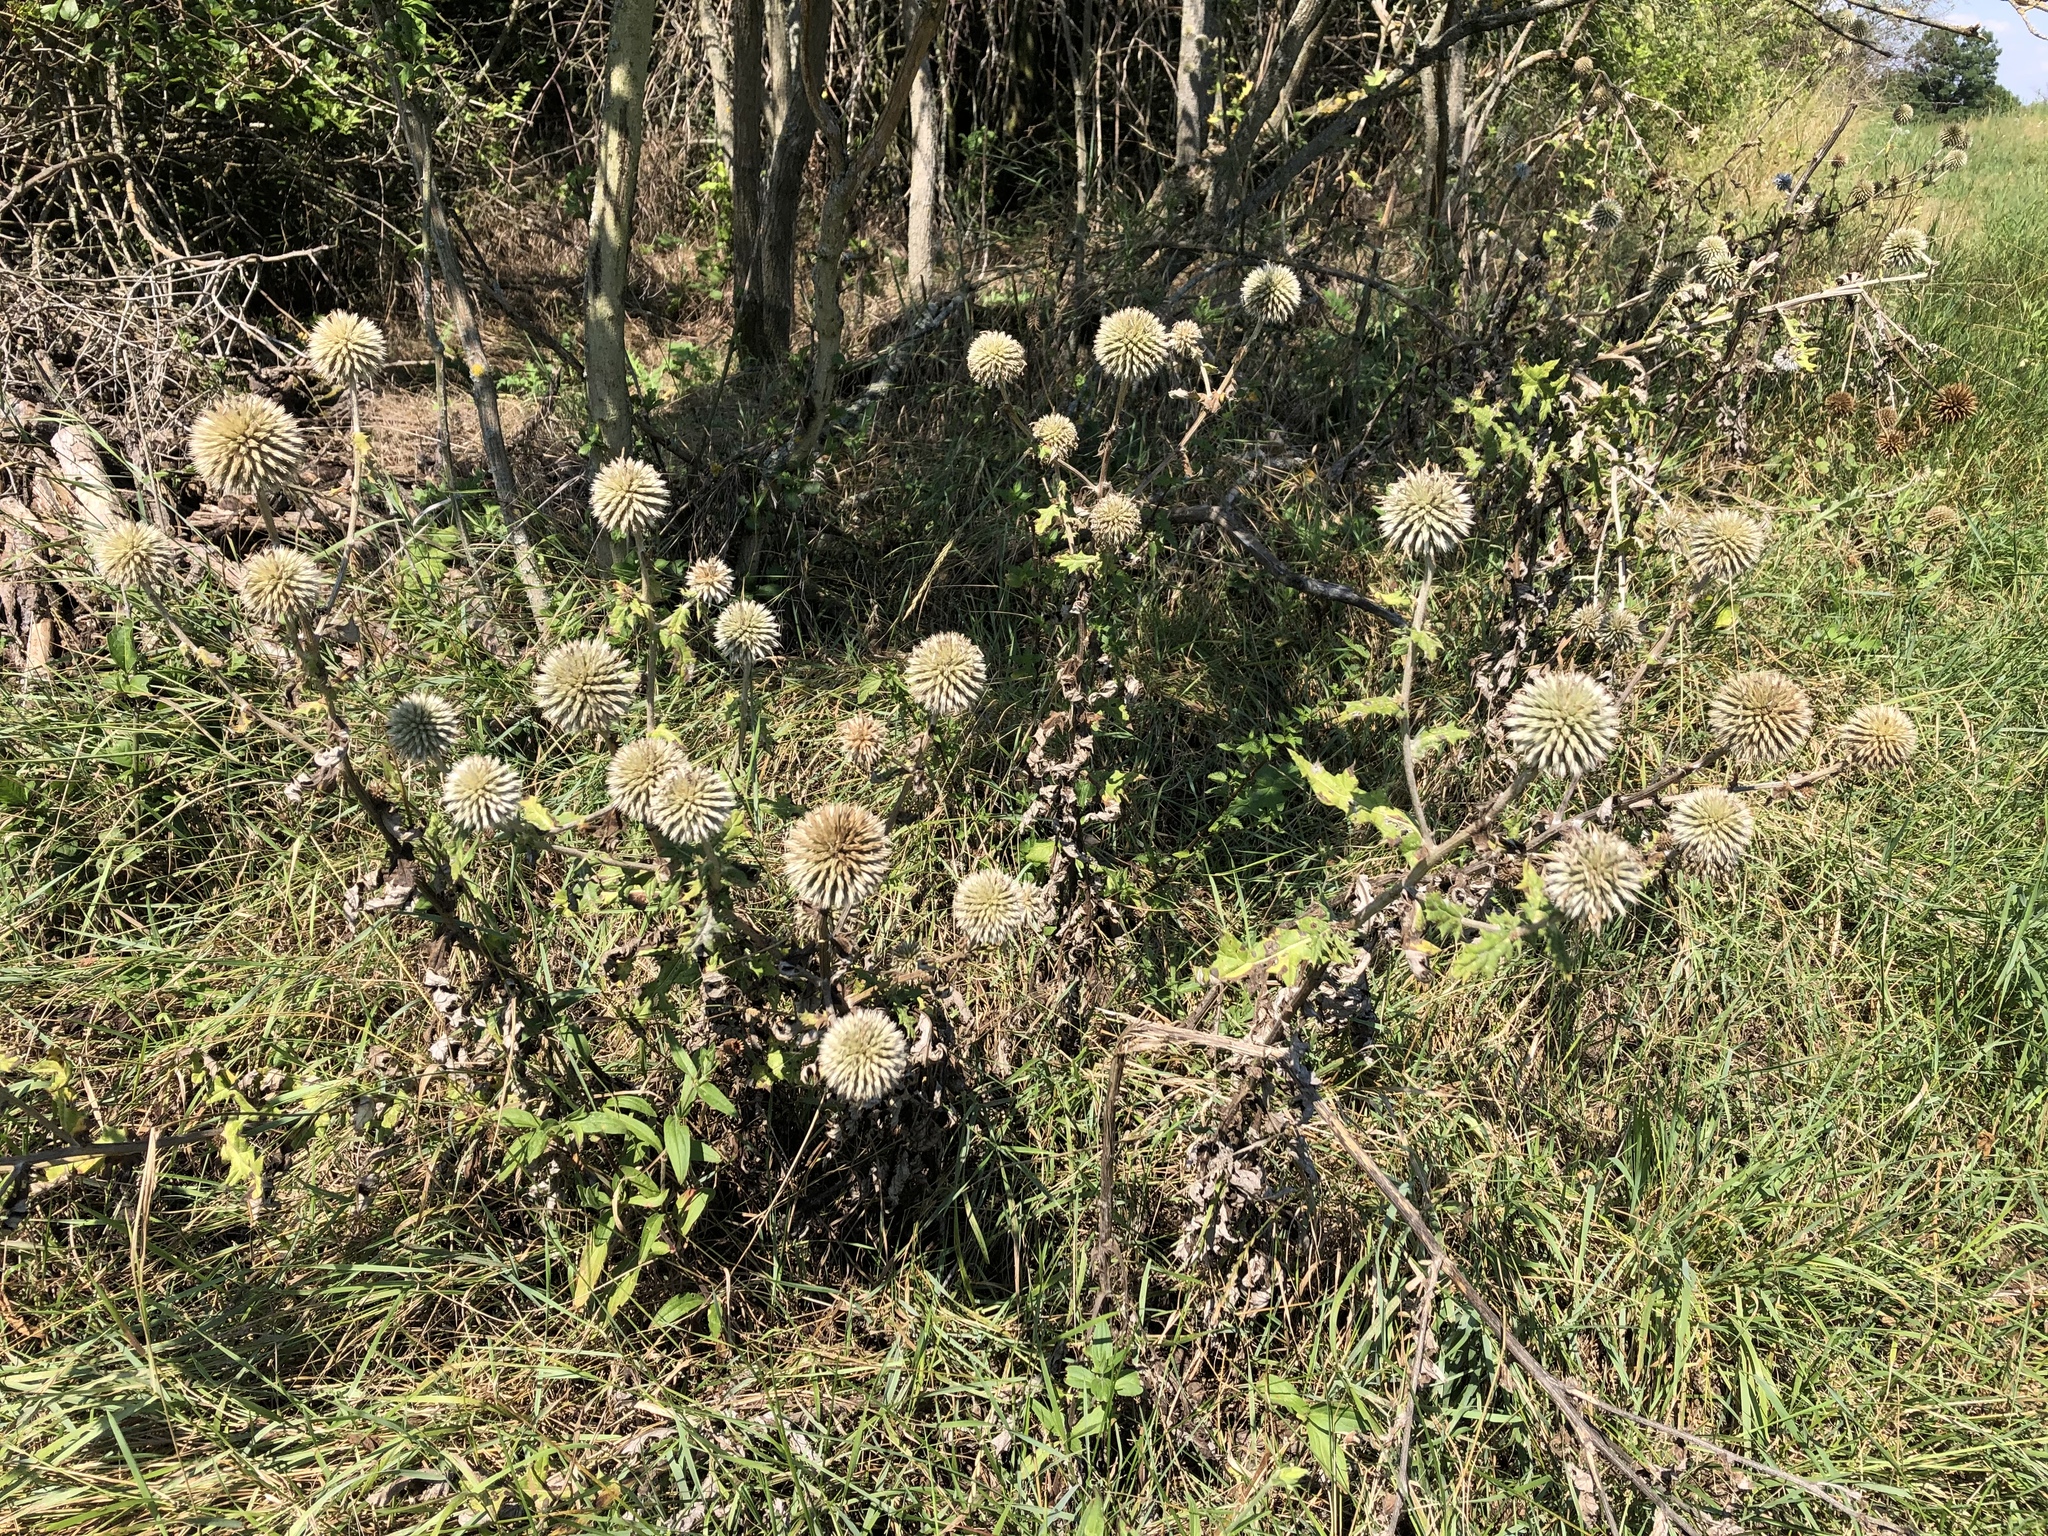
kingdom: Plantae
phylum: Tracheophyta
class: Magnoliopsida
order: Asterales
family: Asteraceae
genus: Echinops
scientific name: Echinops sphaerocephalus
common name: Glandular globe-thistle
